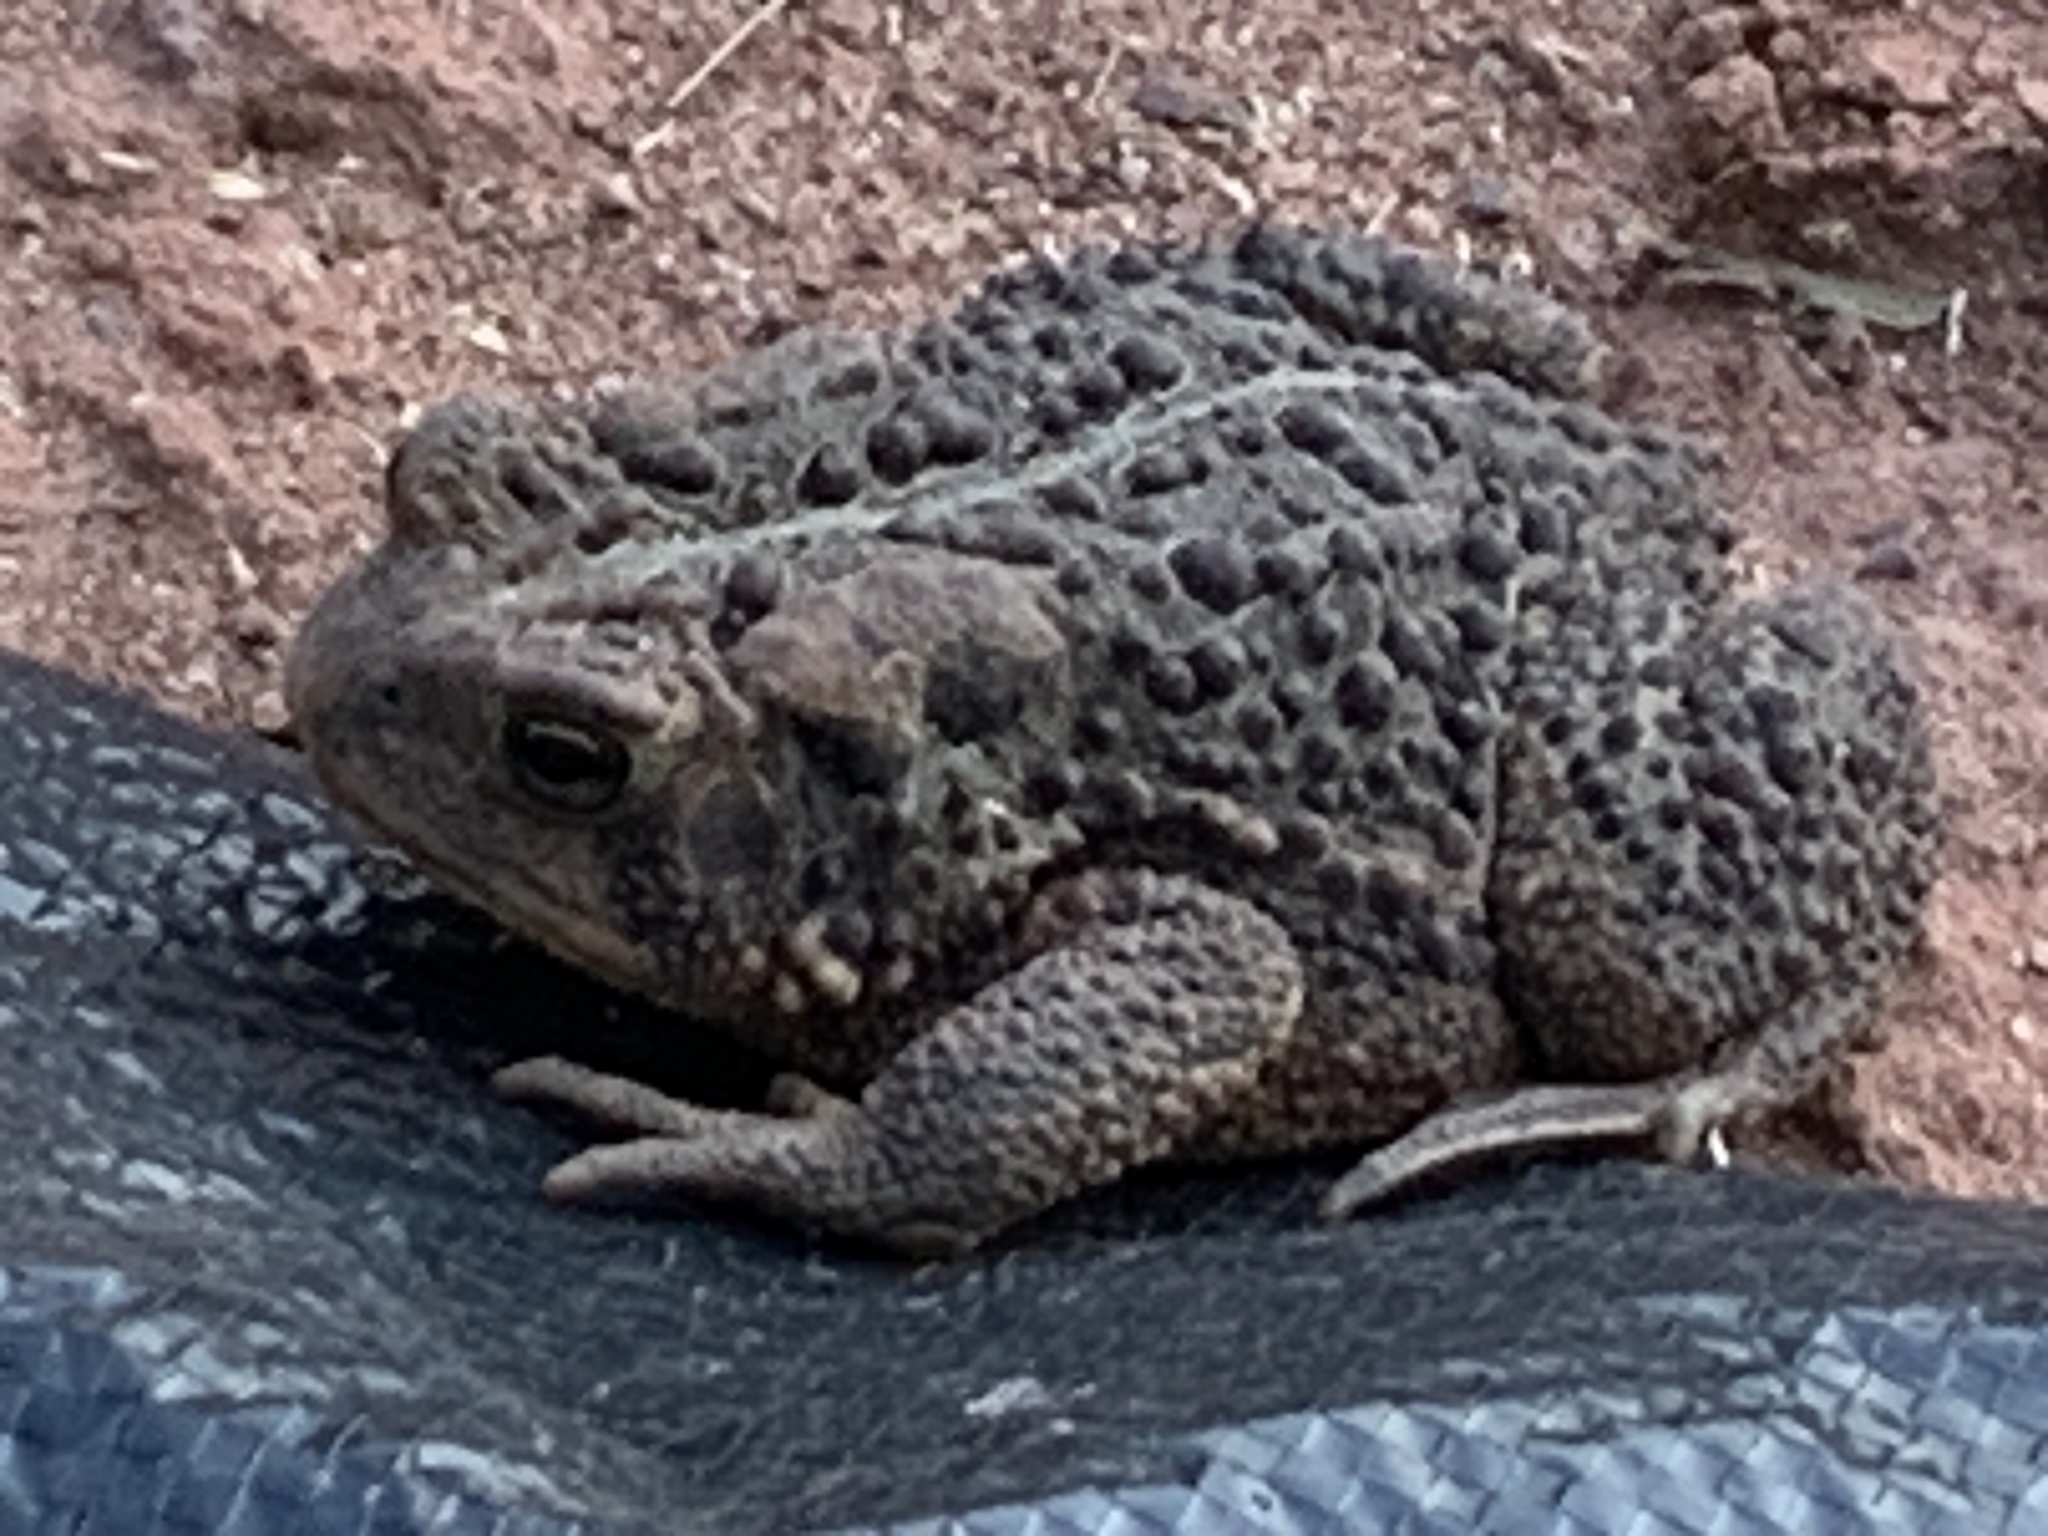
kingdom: Animalia
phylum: Chordata
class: Amphibia
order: Anura
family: Bufonidae
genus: Anaxyrus
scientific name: Anaxyrus americanus
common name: American toad
